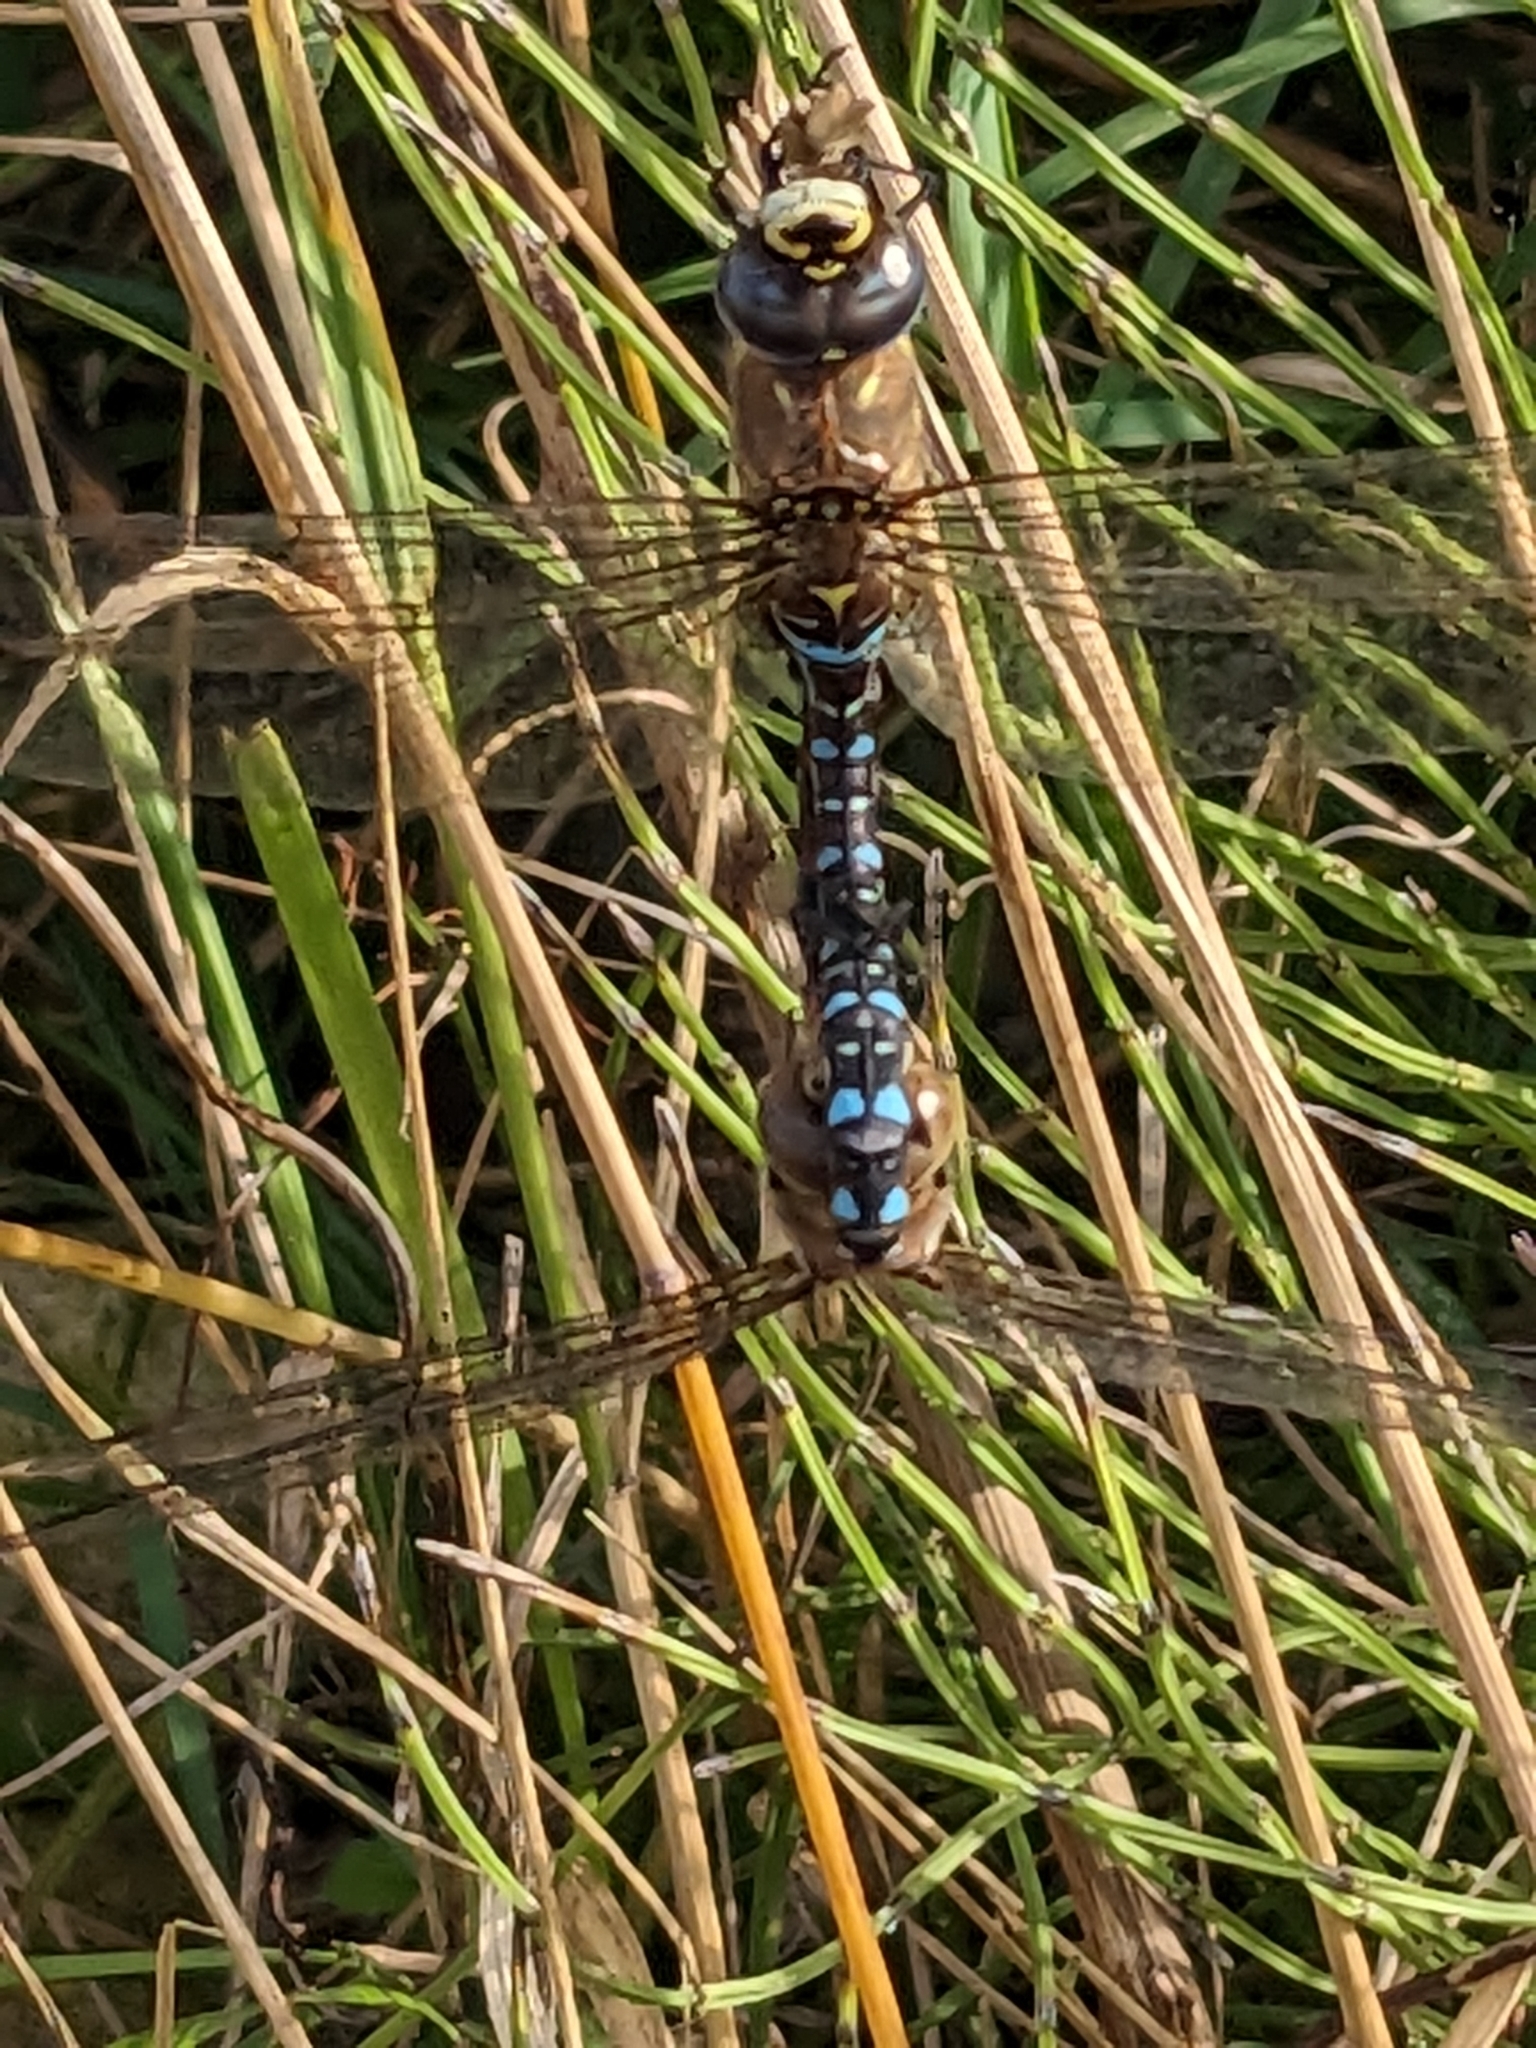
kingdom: Animalia
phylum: Arthropoda
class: Insecta
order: Odonata
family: Aeshnidae
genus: Aeshna
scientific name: Aeshna mixta
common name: Migrant hawker
